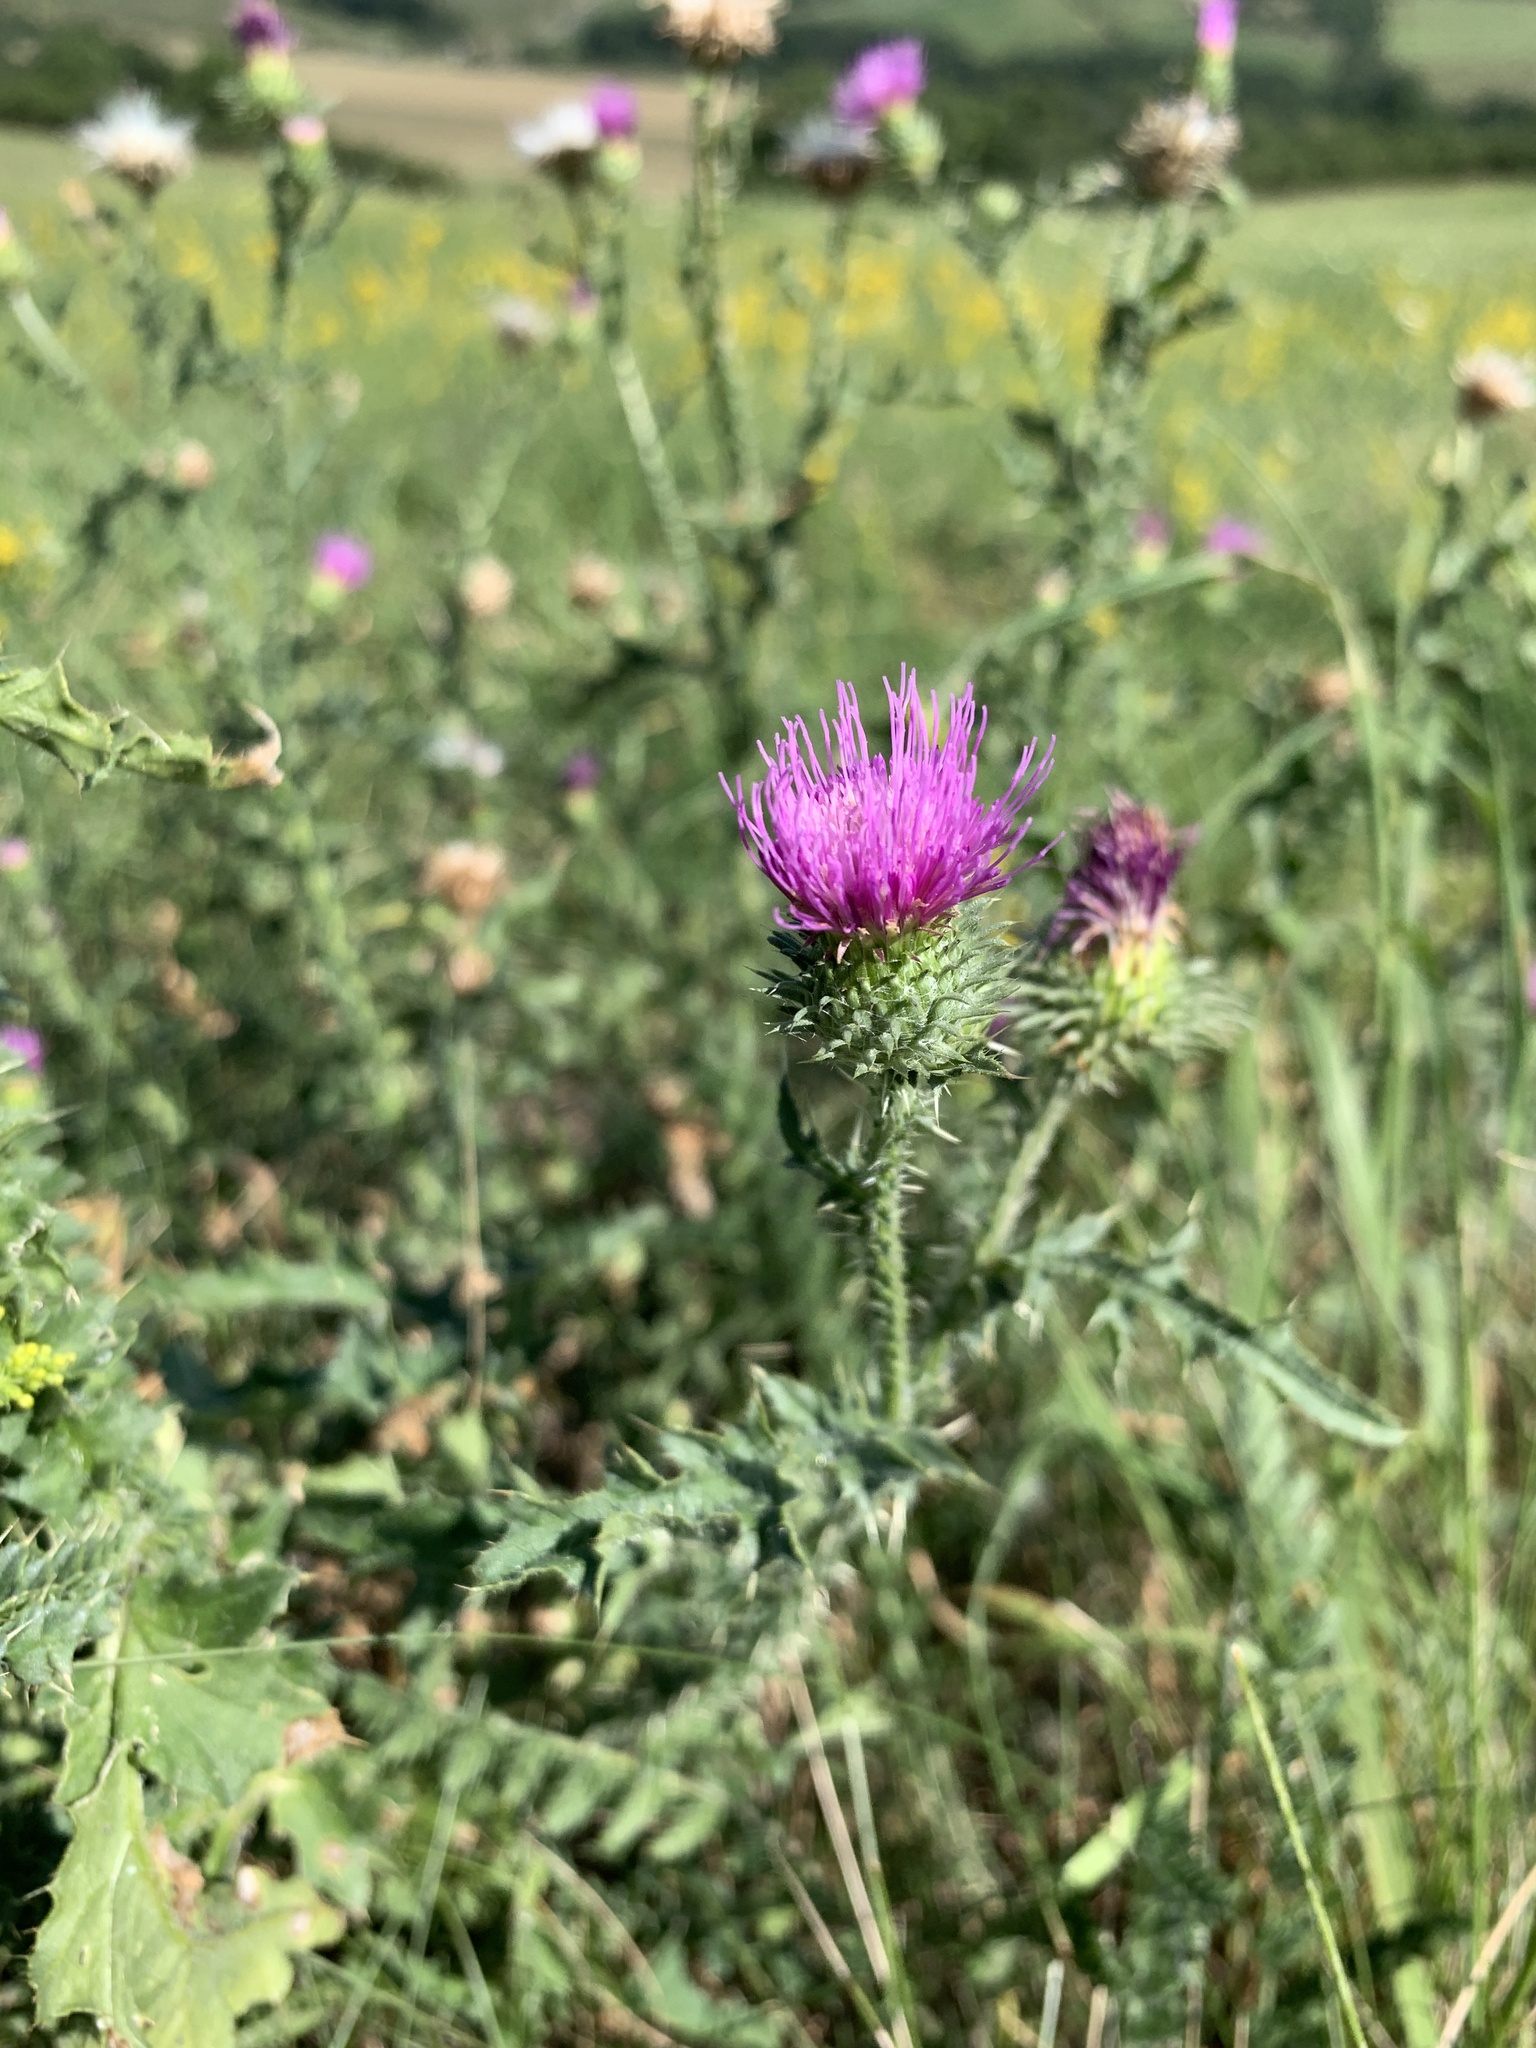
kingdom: Plantae
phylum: Tracheophyta
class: Magnoliopsida
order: Asterales
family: Asteraceae
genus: Carduus
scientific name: Carduus acanthoides
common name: Plumeless thistle
